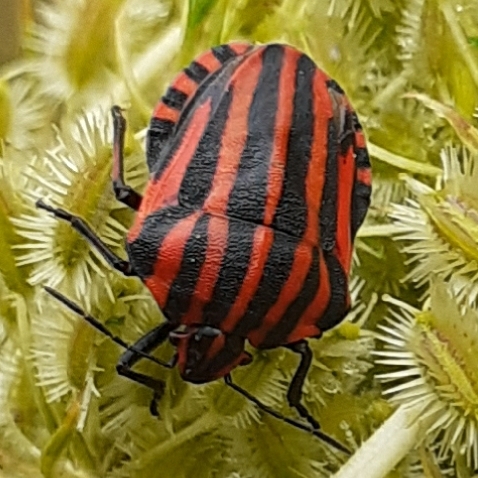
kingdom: Animalia
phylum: Arthropoda
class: Insecta
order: Hemiptera
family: Pentatomidae
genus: Graphosoma
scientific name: Graphosoma italicum
